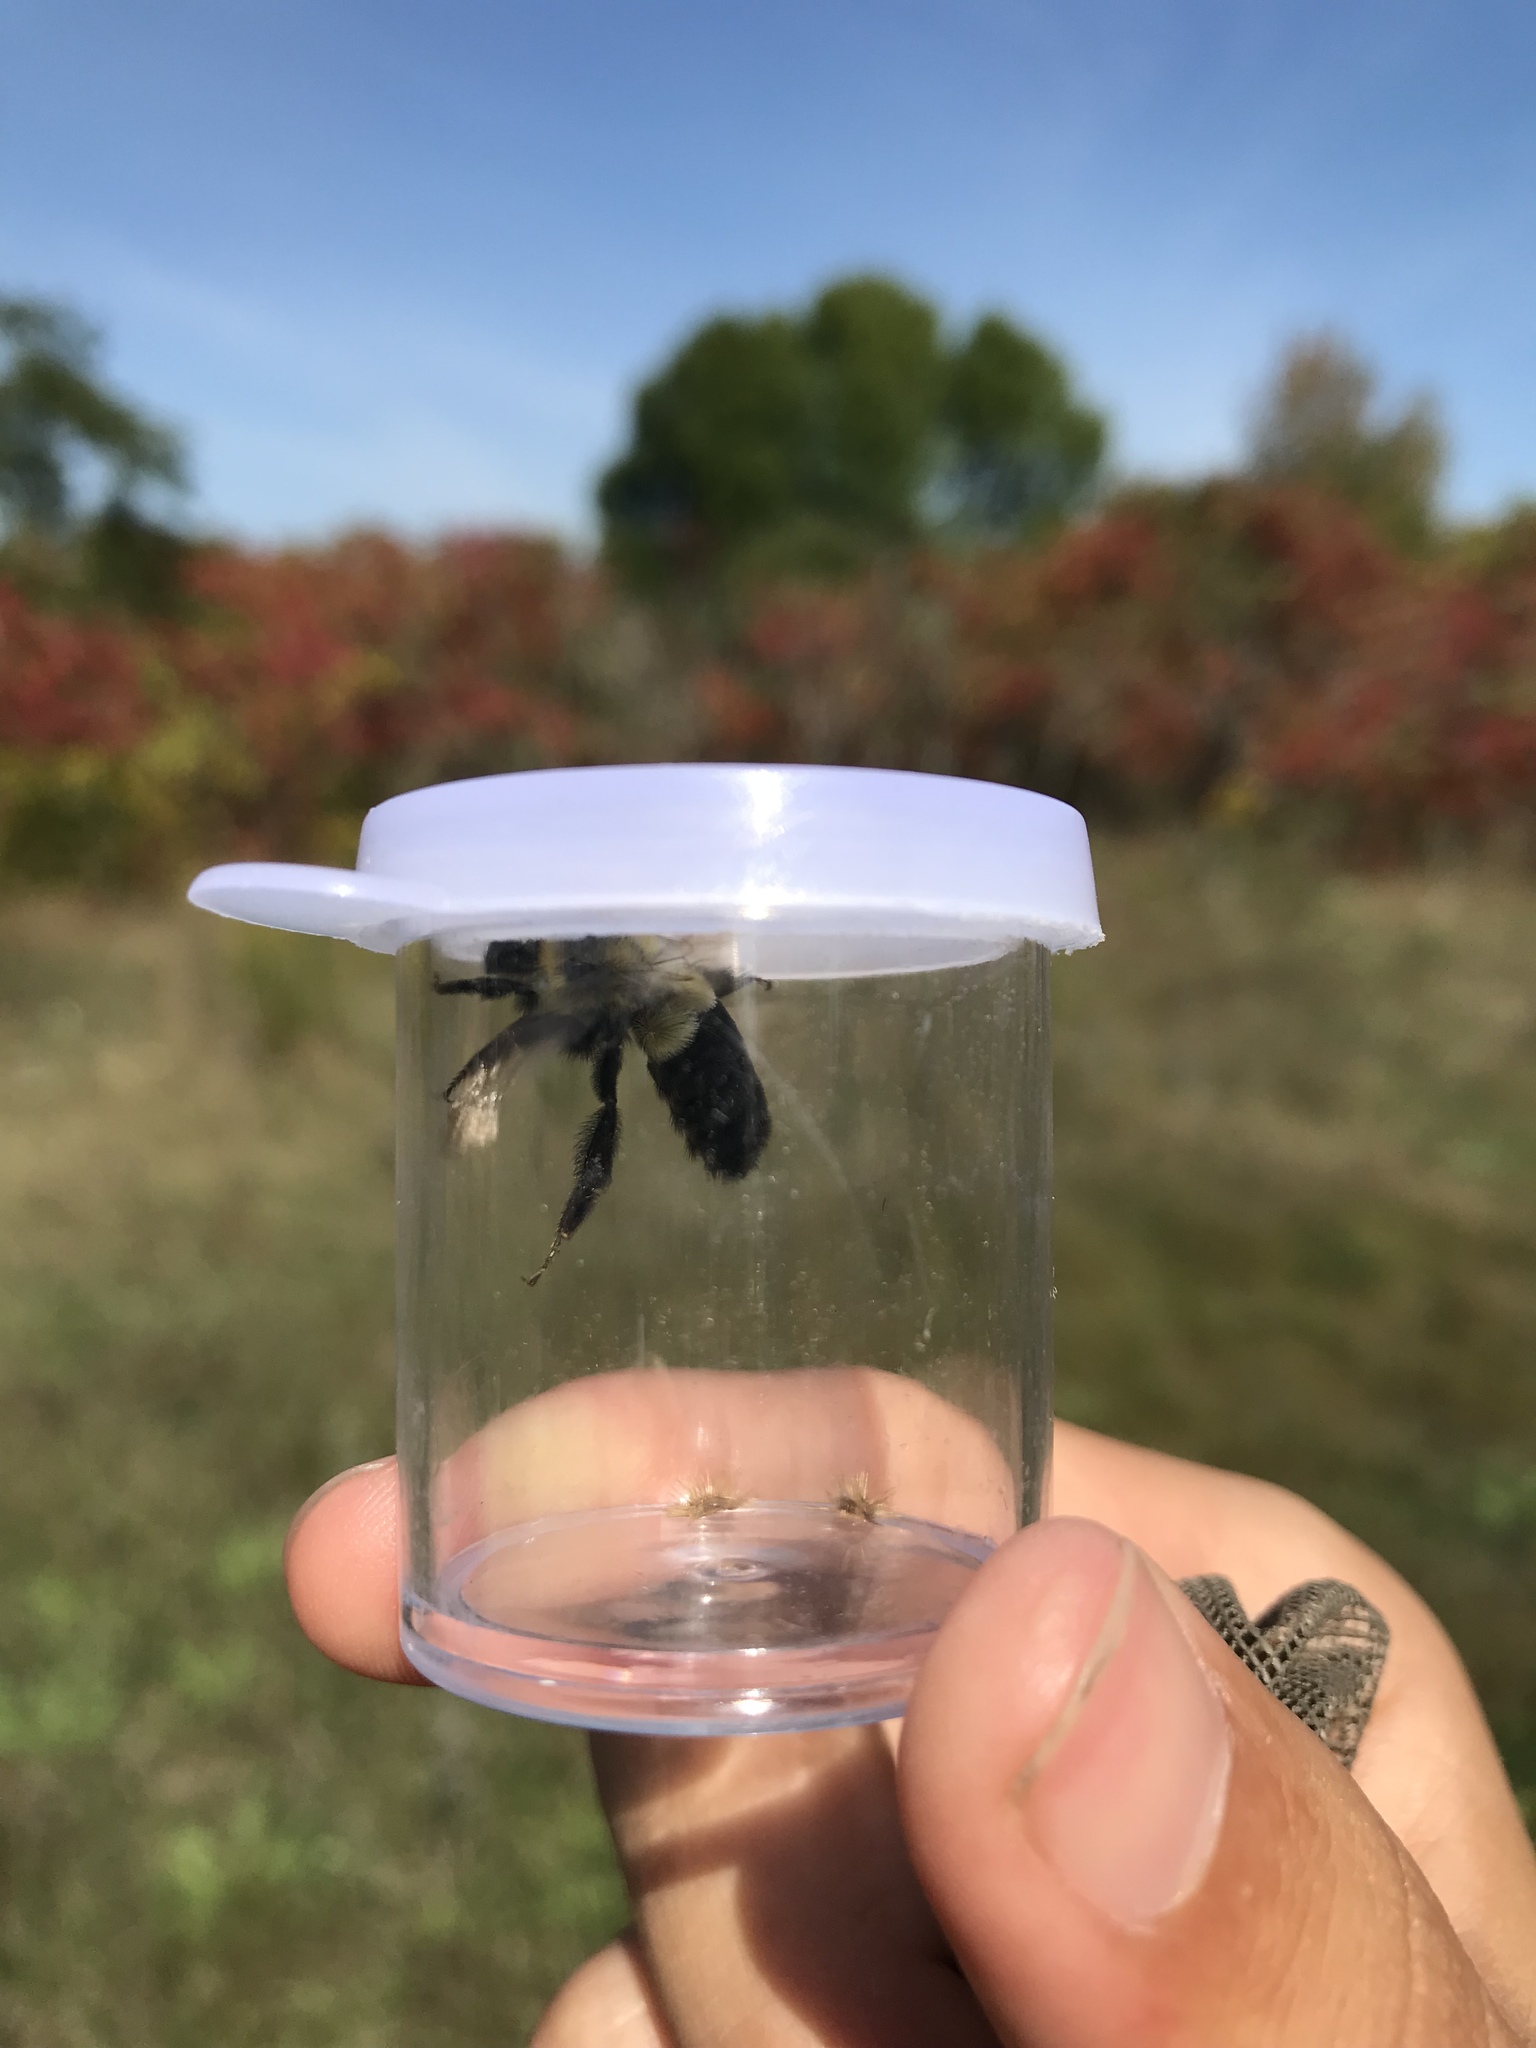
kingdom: Animalia
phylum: Arthropoda
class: Insecta
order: Hymenoptera
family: Apidae
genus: Bombus
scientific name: Bombus impatiens
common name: Common eastern bumble bee
